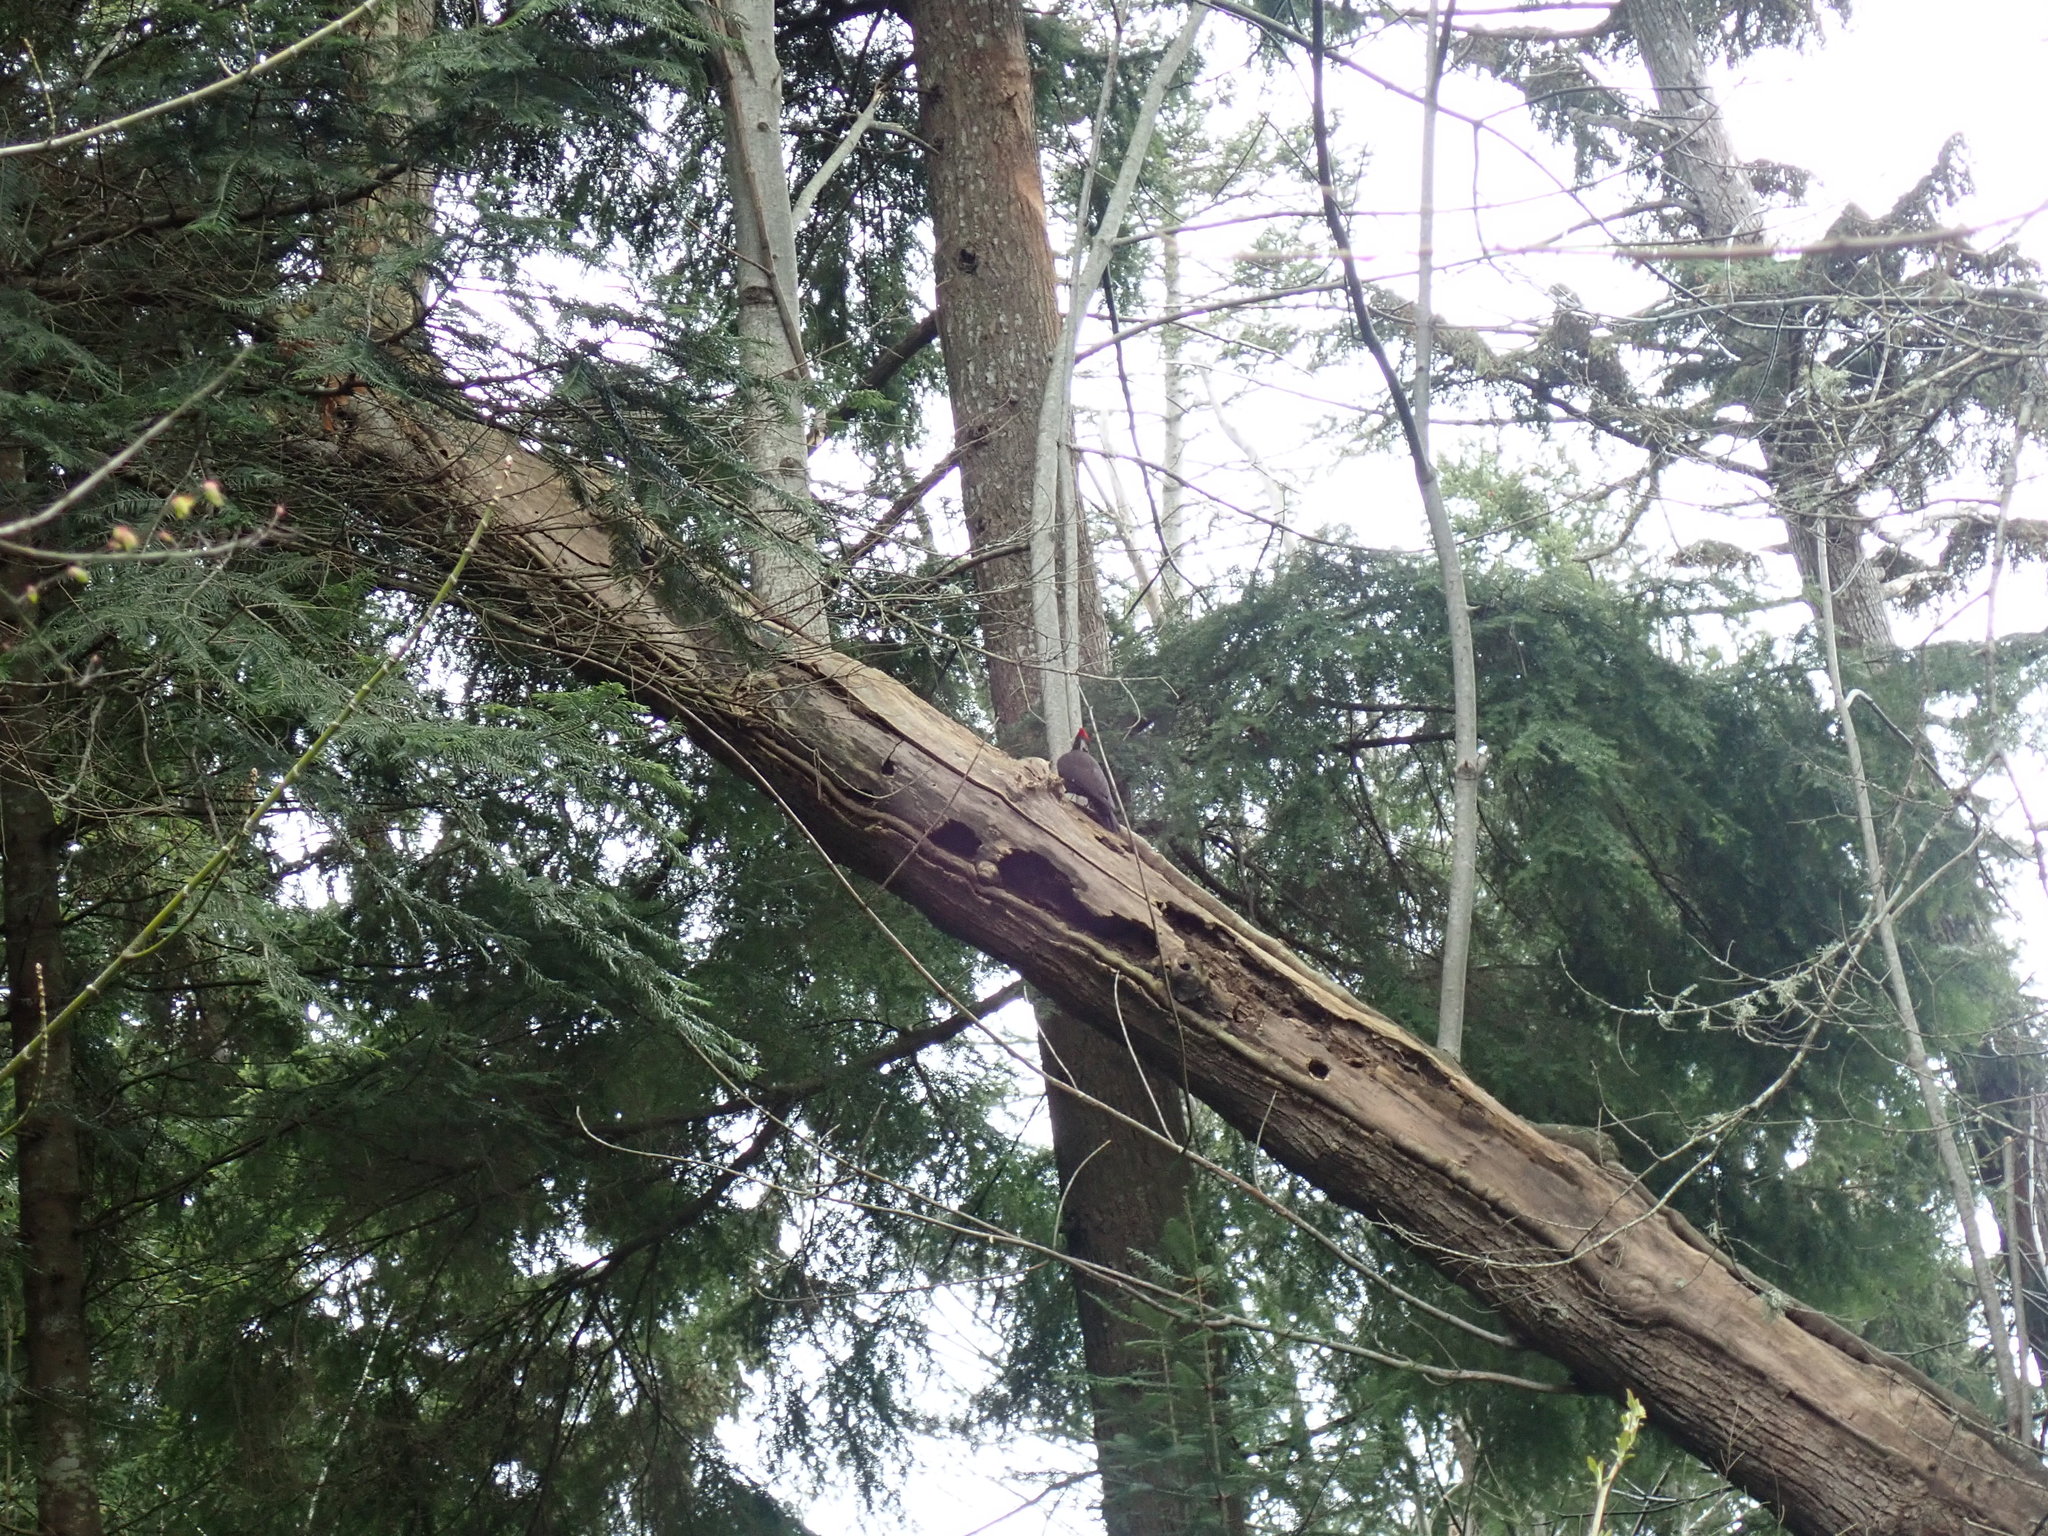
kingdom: Animalia
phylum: Chordata
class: Aves
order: Piciformes
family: Picidae
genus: Dryocopus
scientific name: Dryocopus pileatus
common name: Pileated woodpecker
